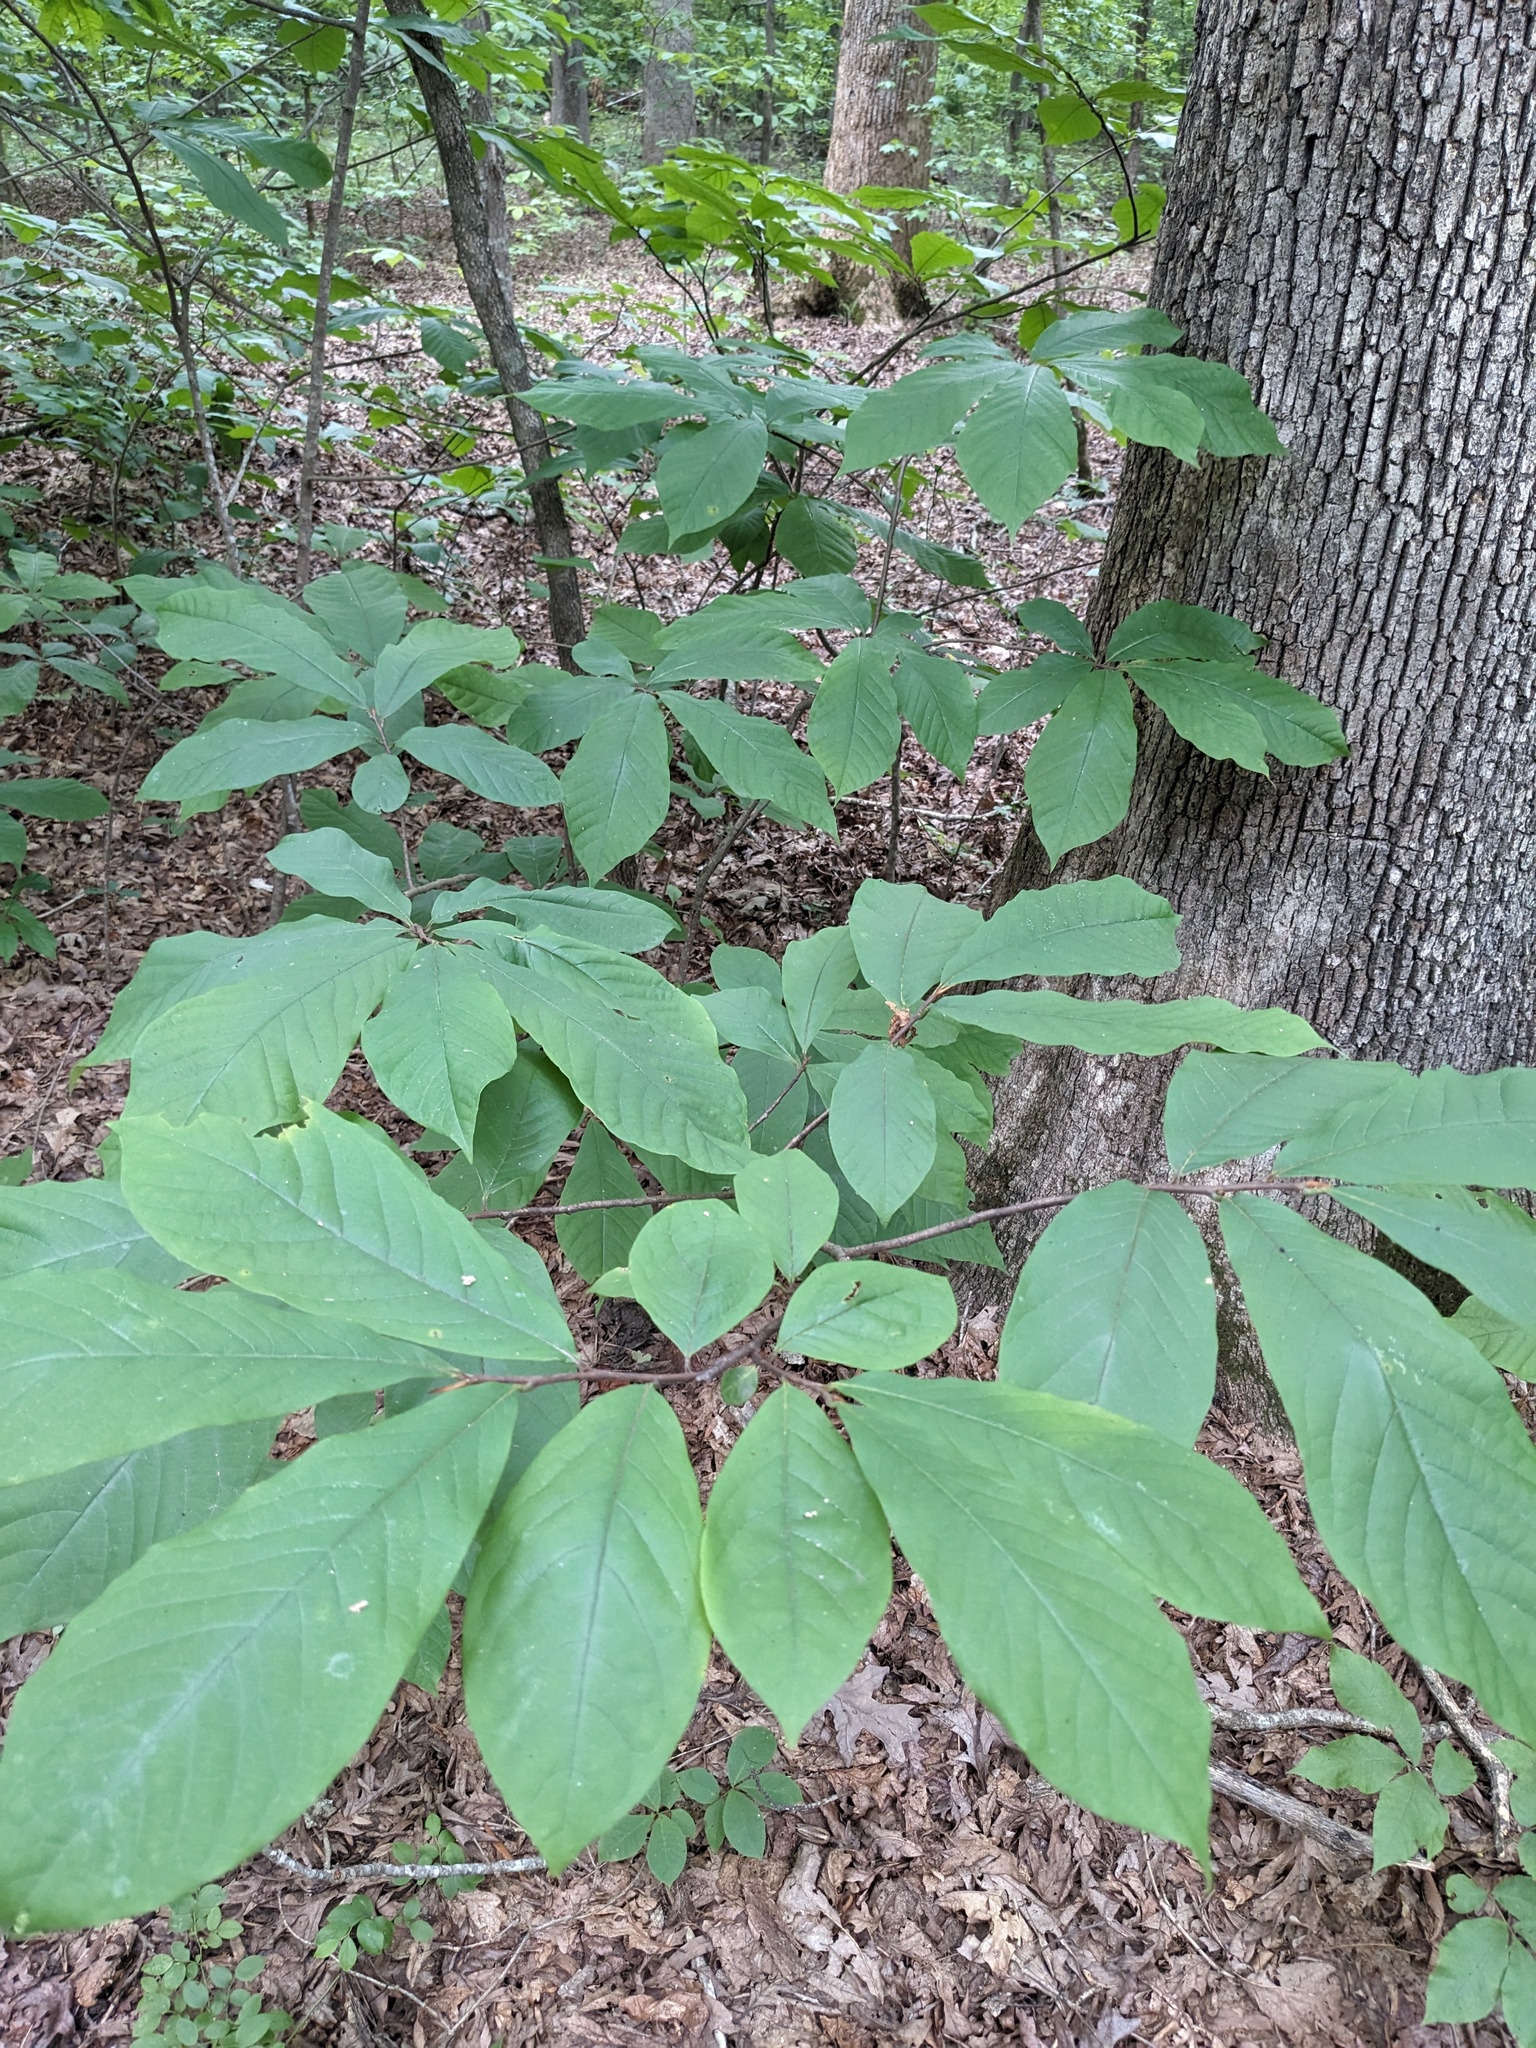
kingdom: Plantae
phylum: Tracheophyta
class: Magnoliopsida
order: Magnoliales
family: Annonaceae
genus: Asimina
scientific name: Asimina triloba
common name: Dog-banana
